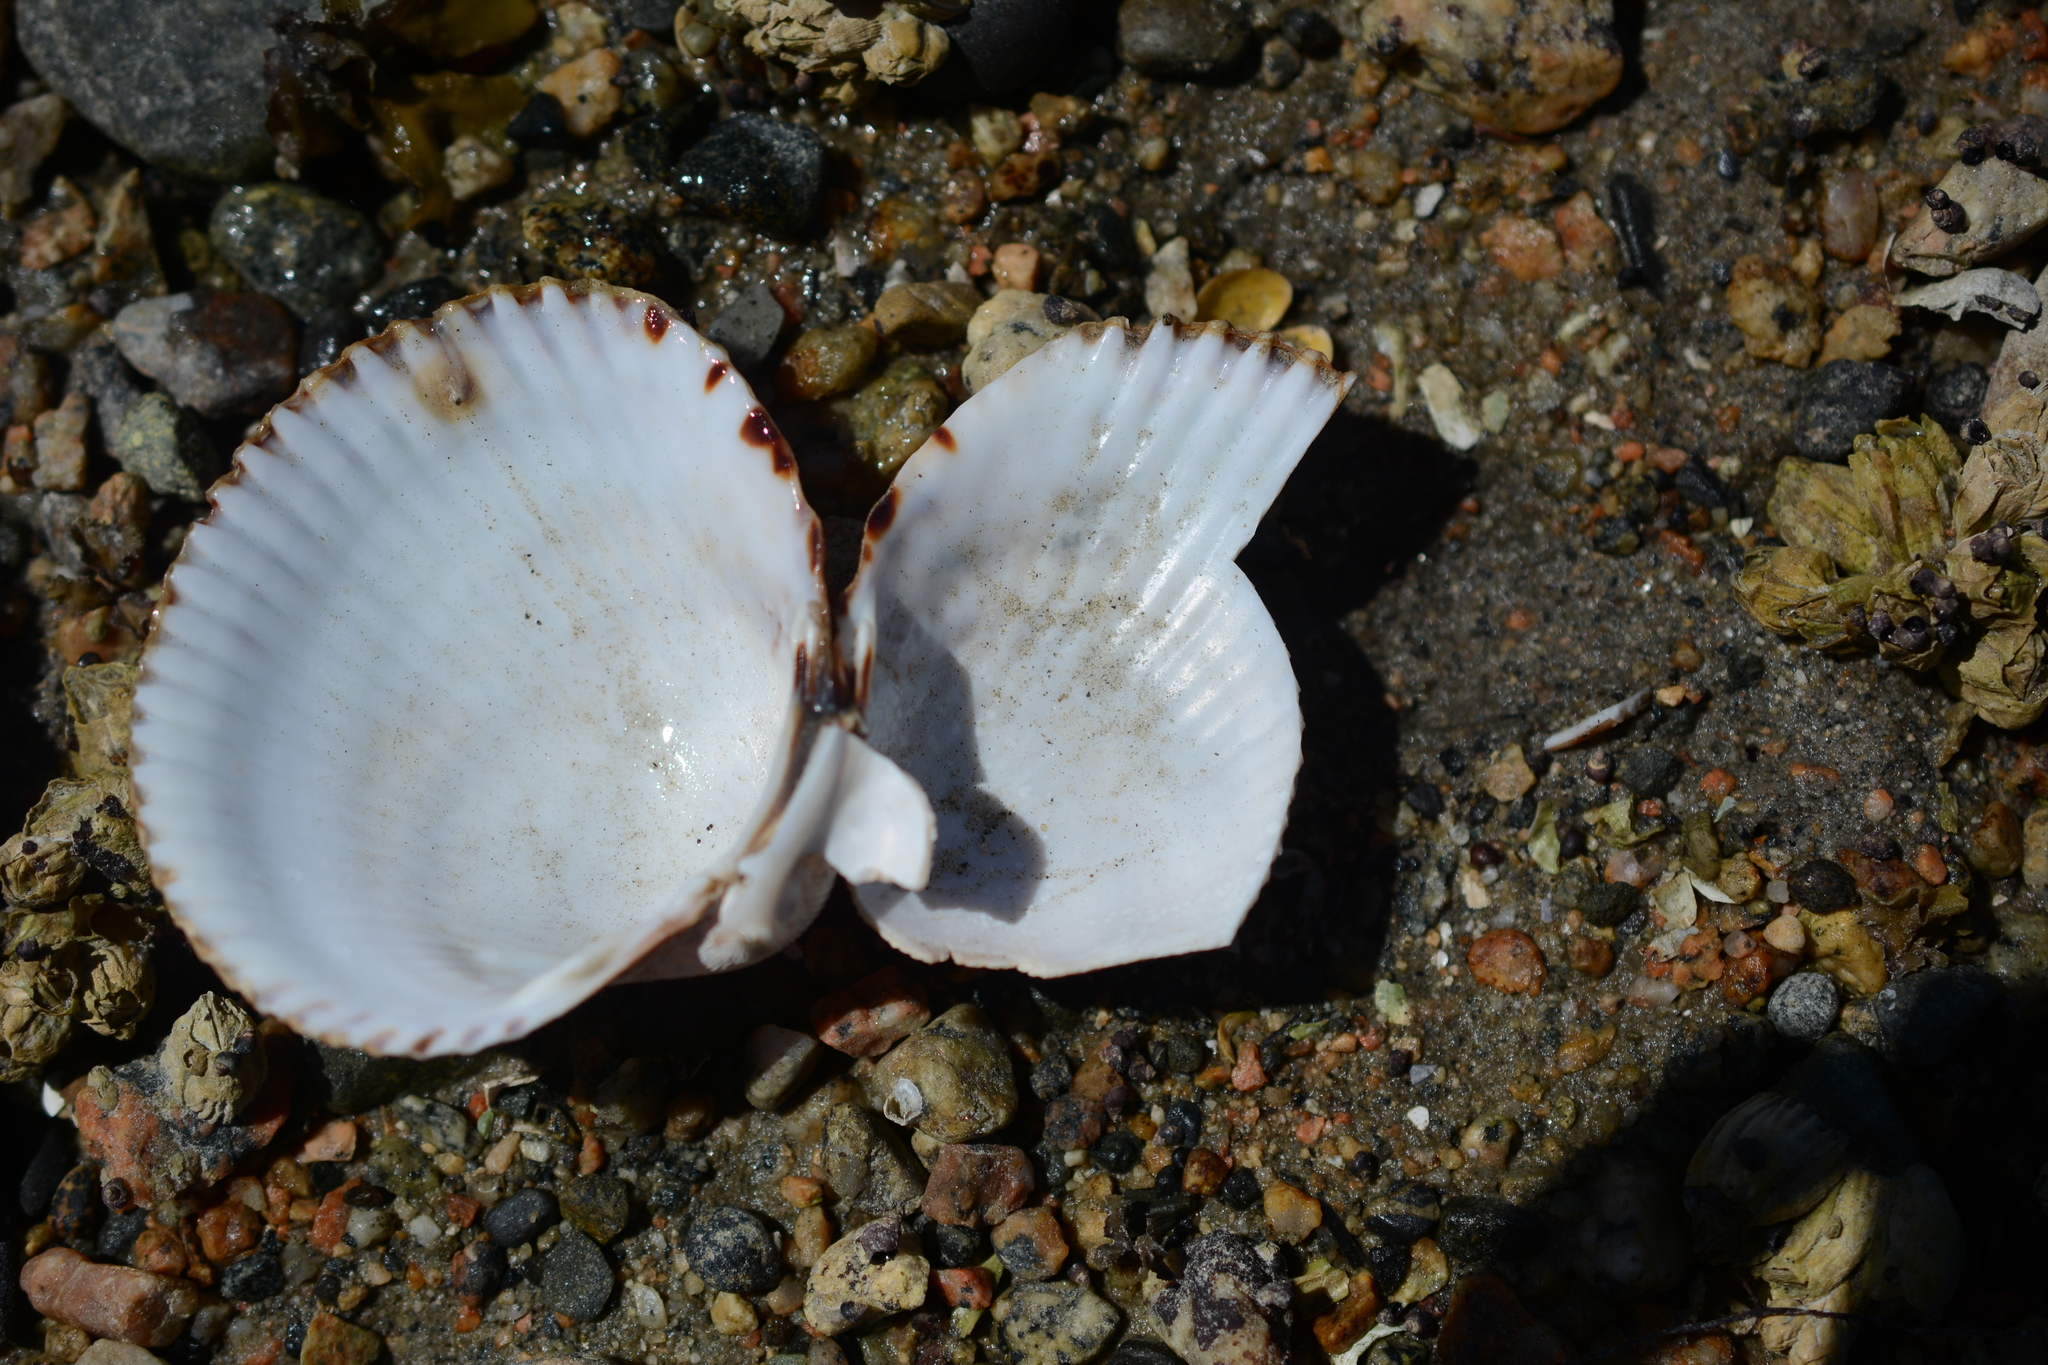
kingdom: Animalia
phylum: Mollusca
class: Bivalvia
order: Cardiida
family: Cardiidae
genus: Clinocardium
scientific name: Clinocardium nuttallii
